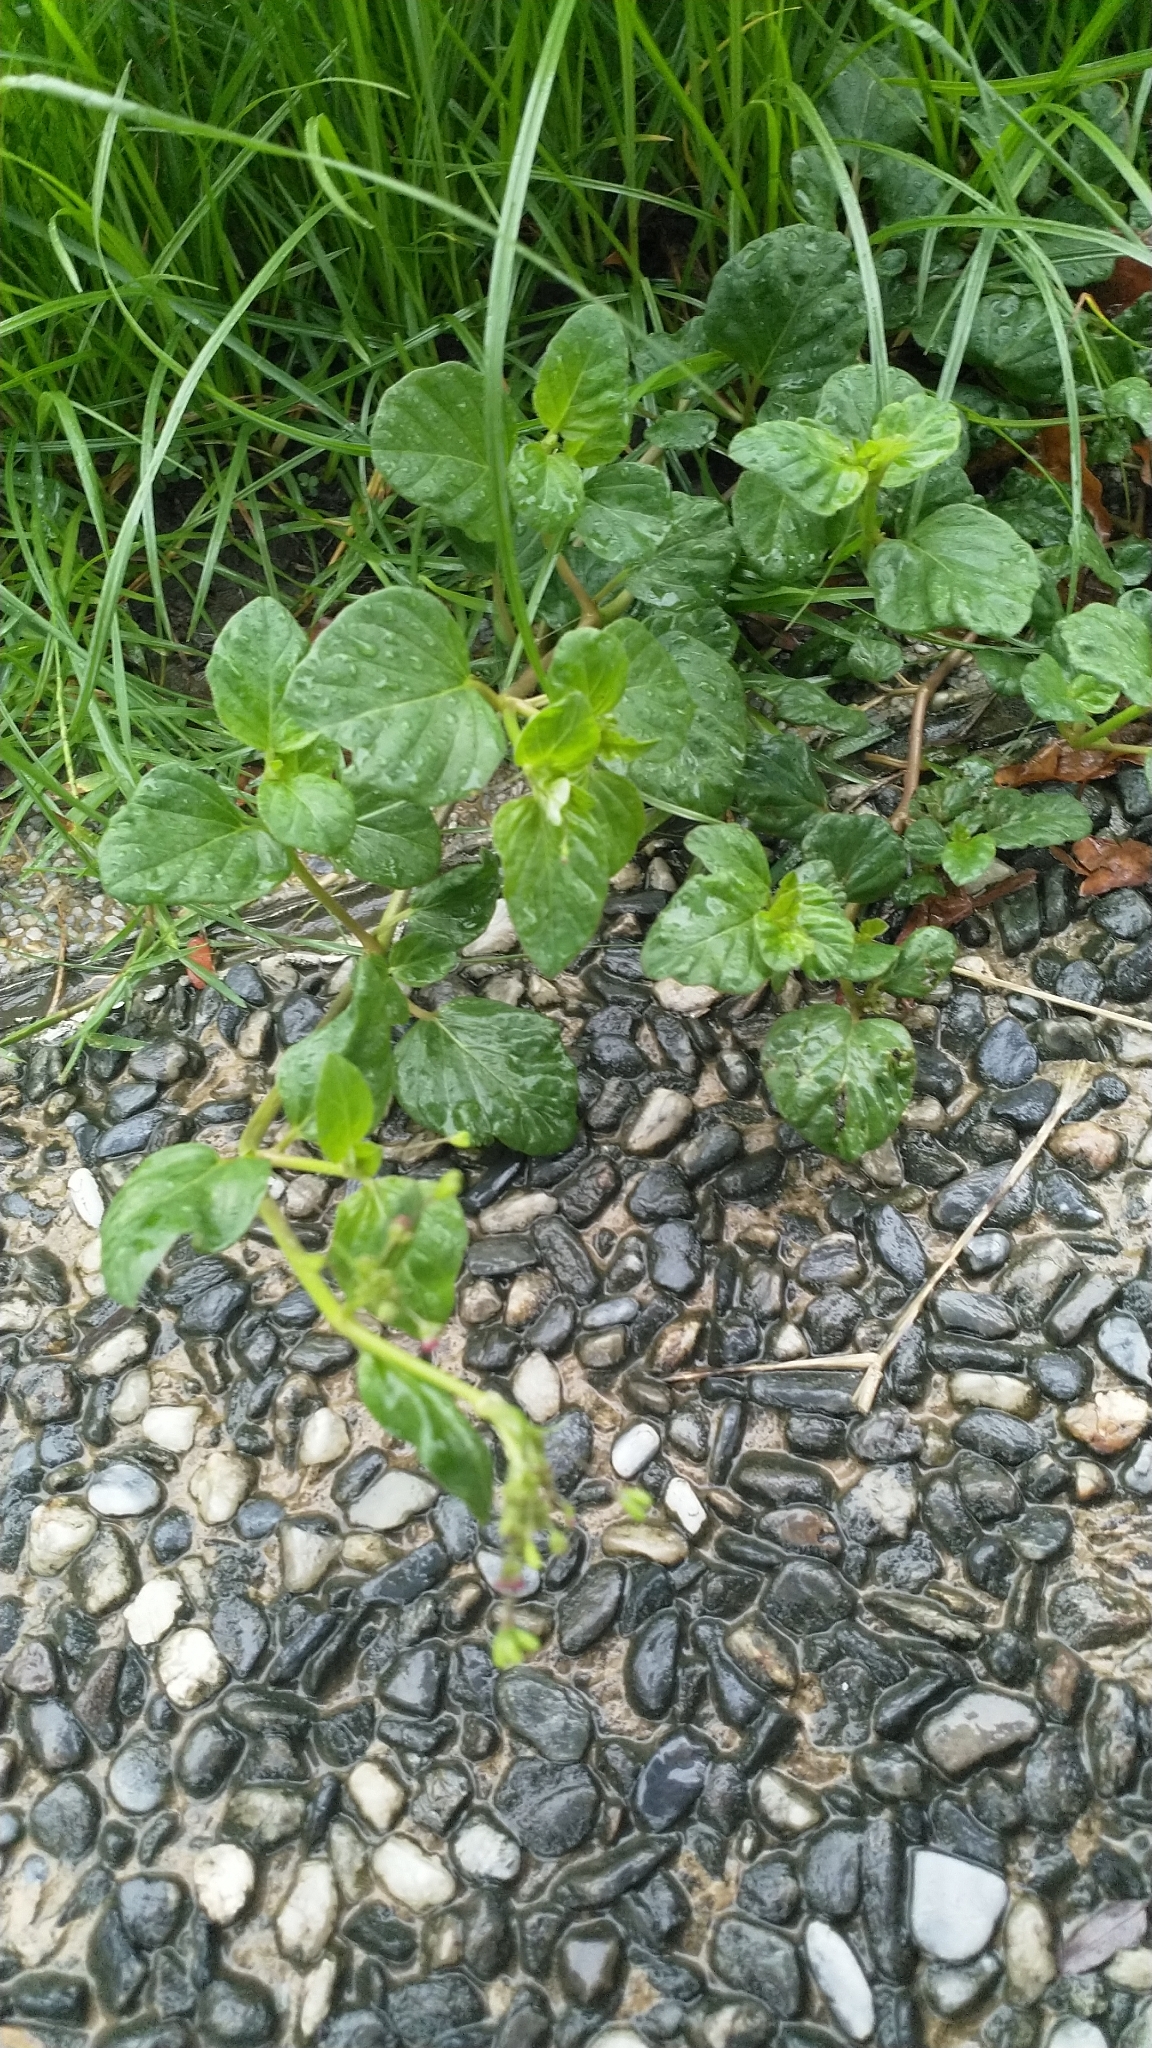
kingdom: Plantae
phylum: Tracheophyta
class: Magnoliopsida
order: Caryophyllales
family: Nyctaginaceae
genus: Boerhavia
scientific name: Boerhavia coccinea
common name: Scarlet spiderling
